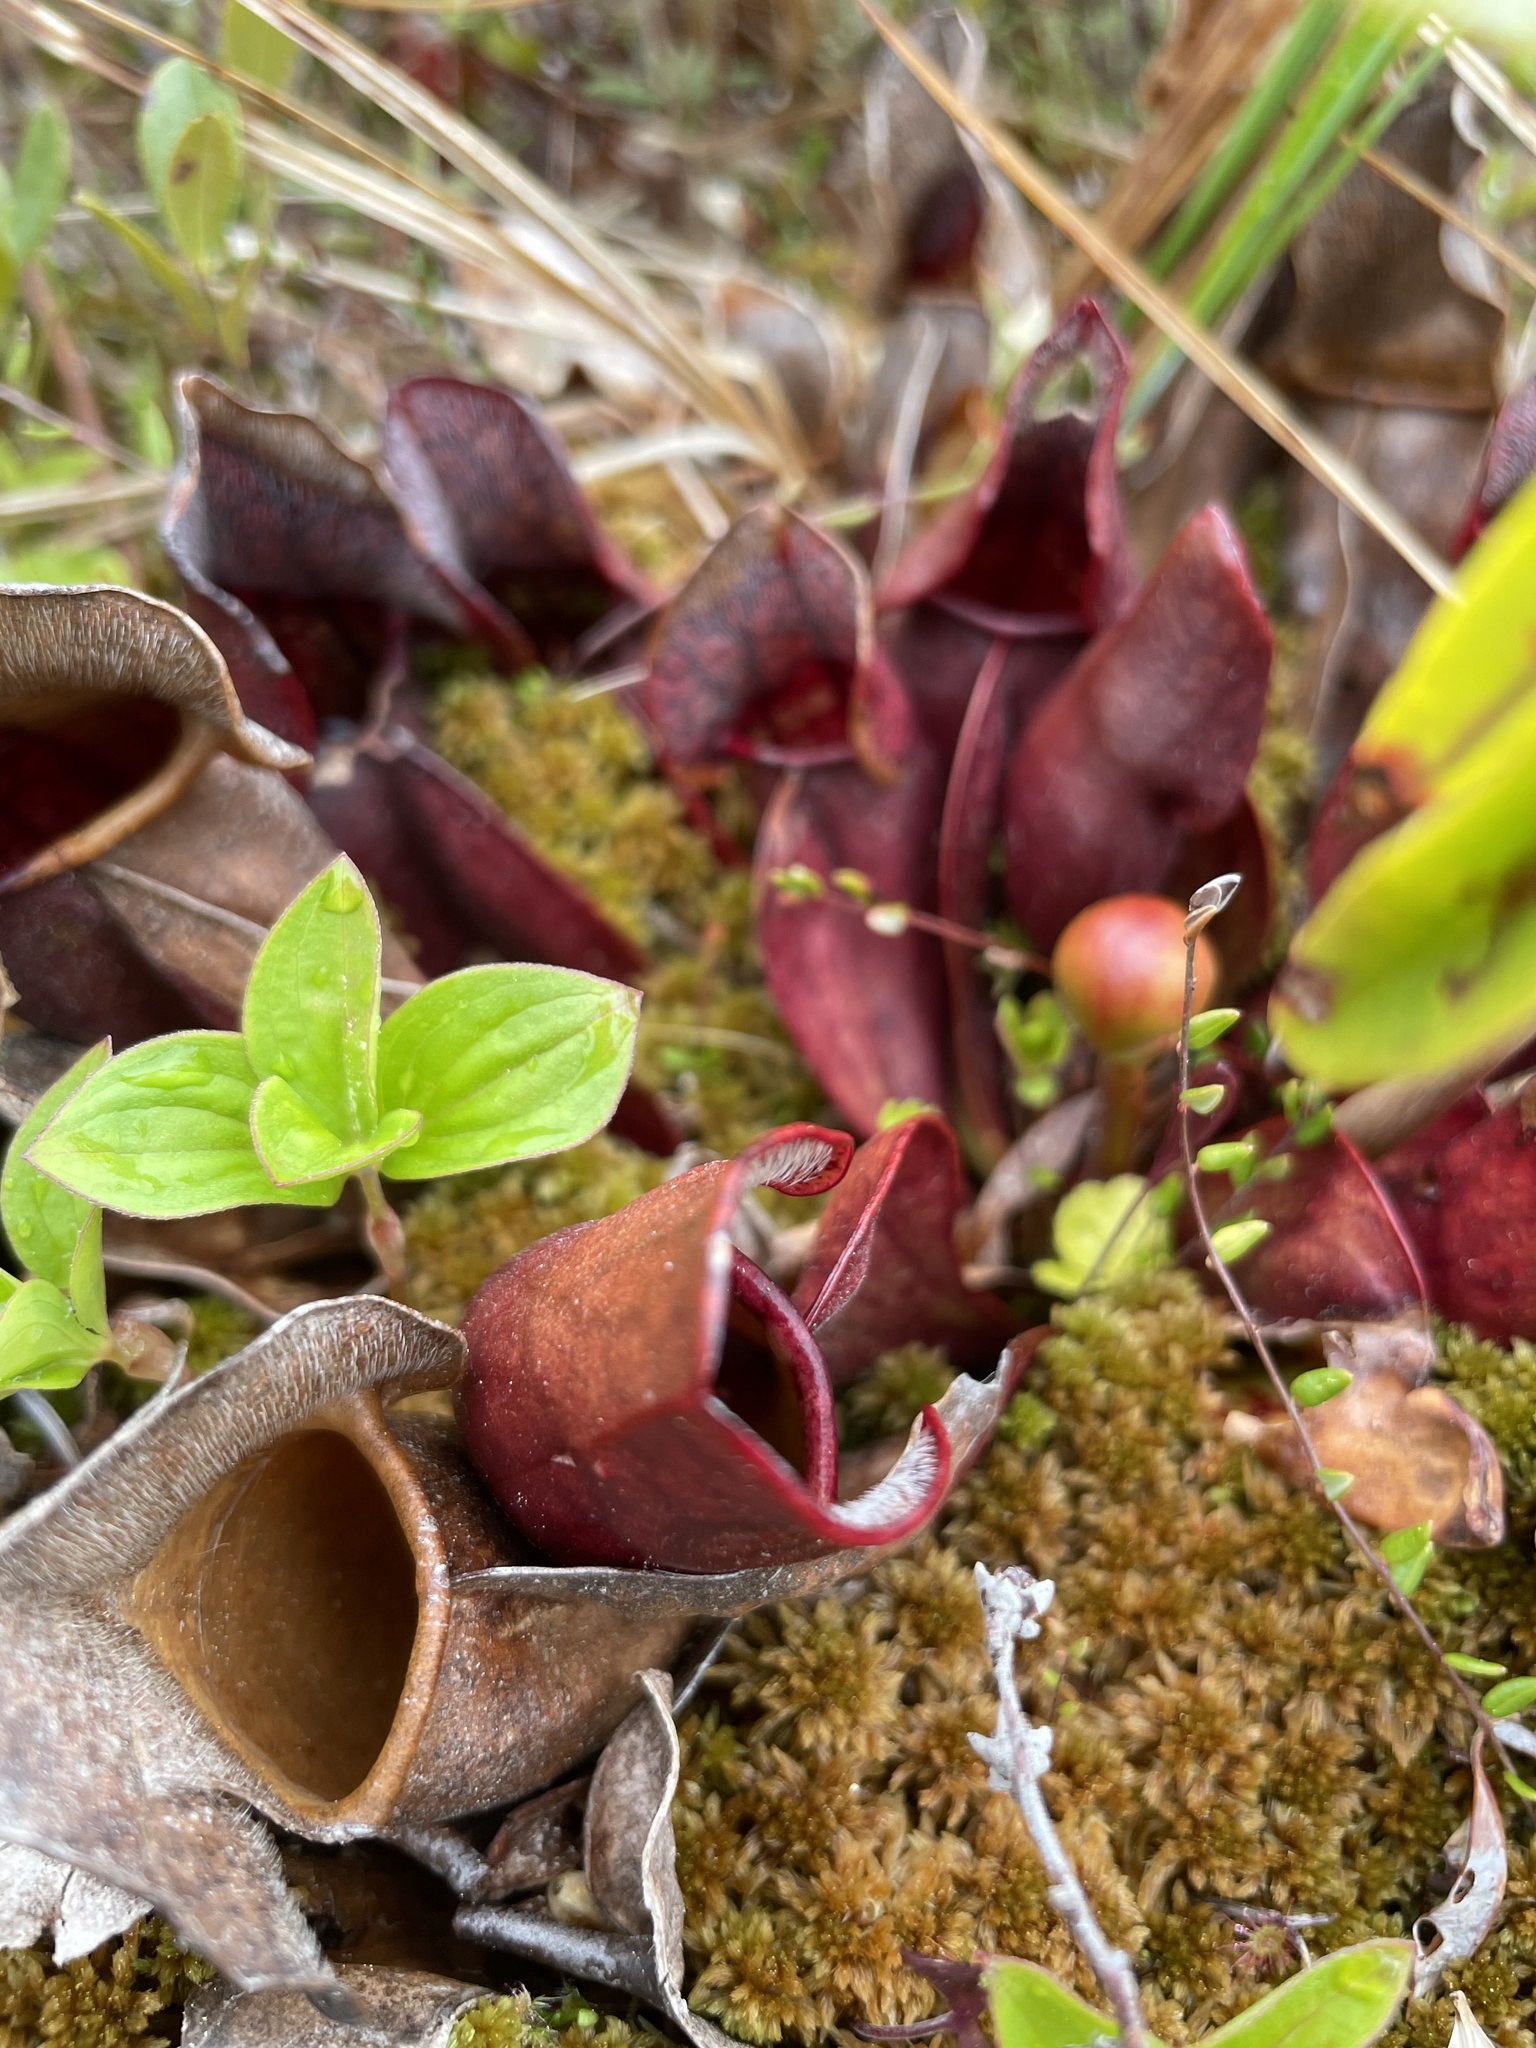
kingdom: Plantae
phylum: Tracheophyta
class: Magnoliopsida
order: Ericales
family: Sarraceniaceae
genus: Sarracenia
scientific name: Sarracenia purpurea
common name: Pitcherplant
